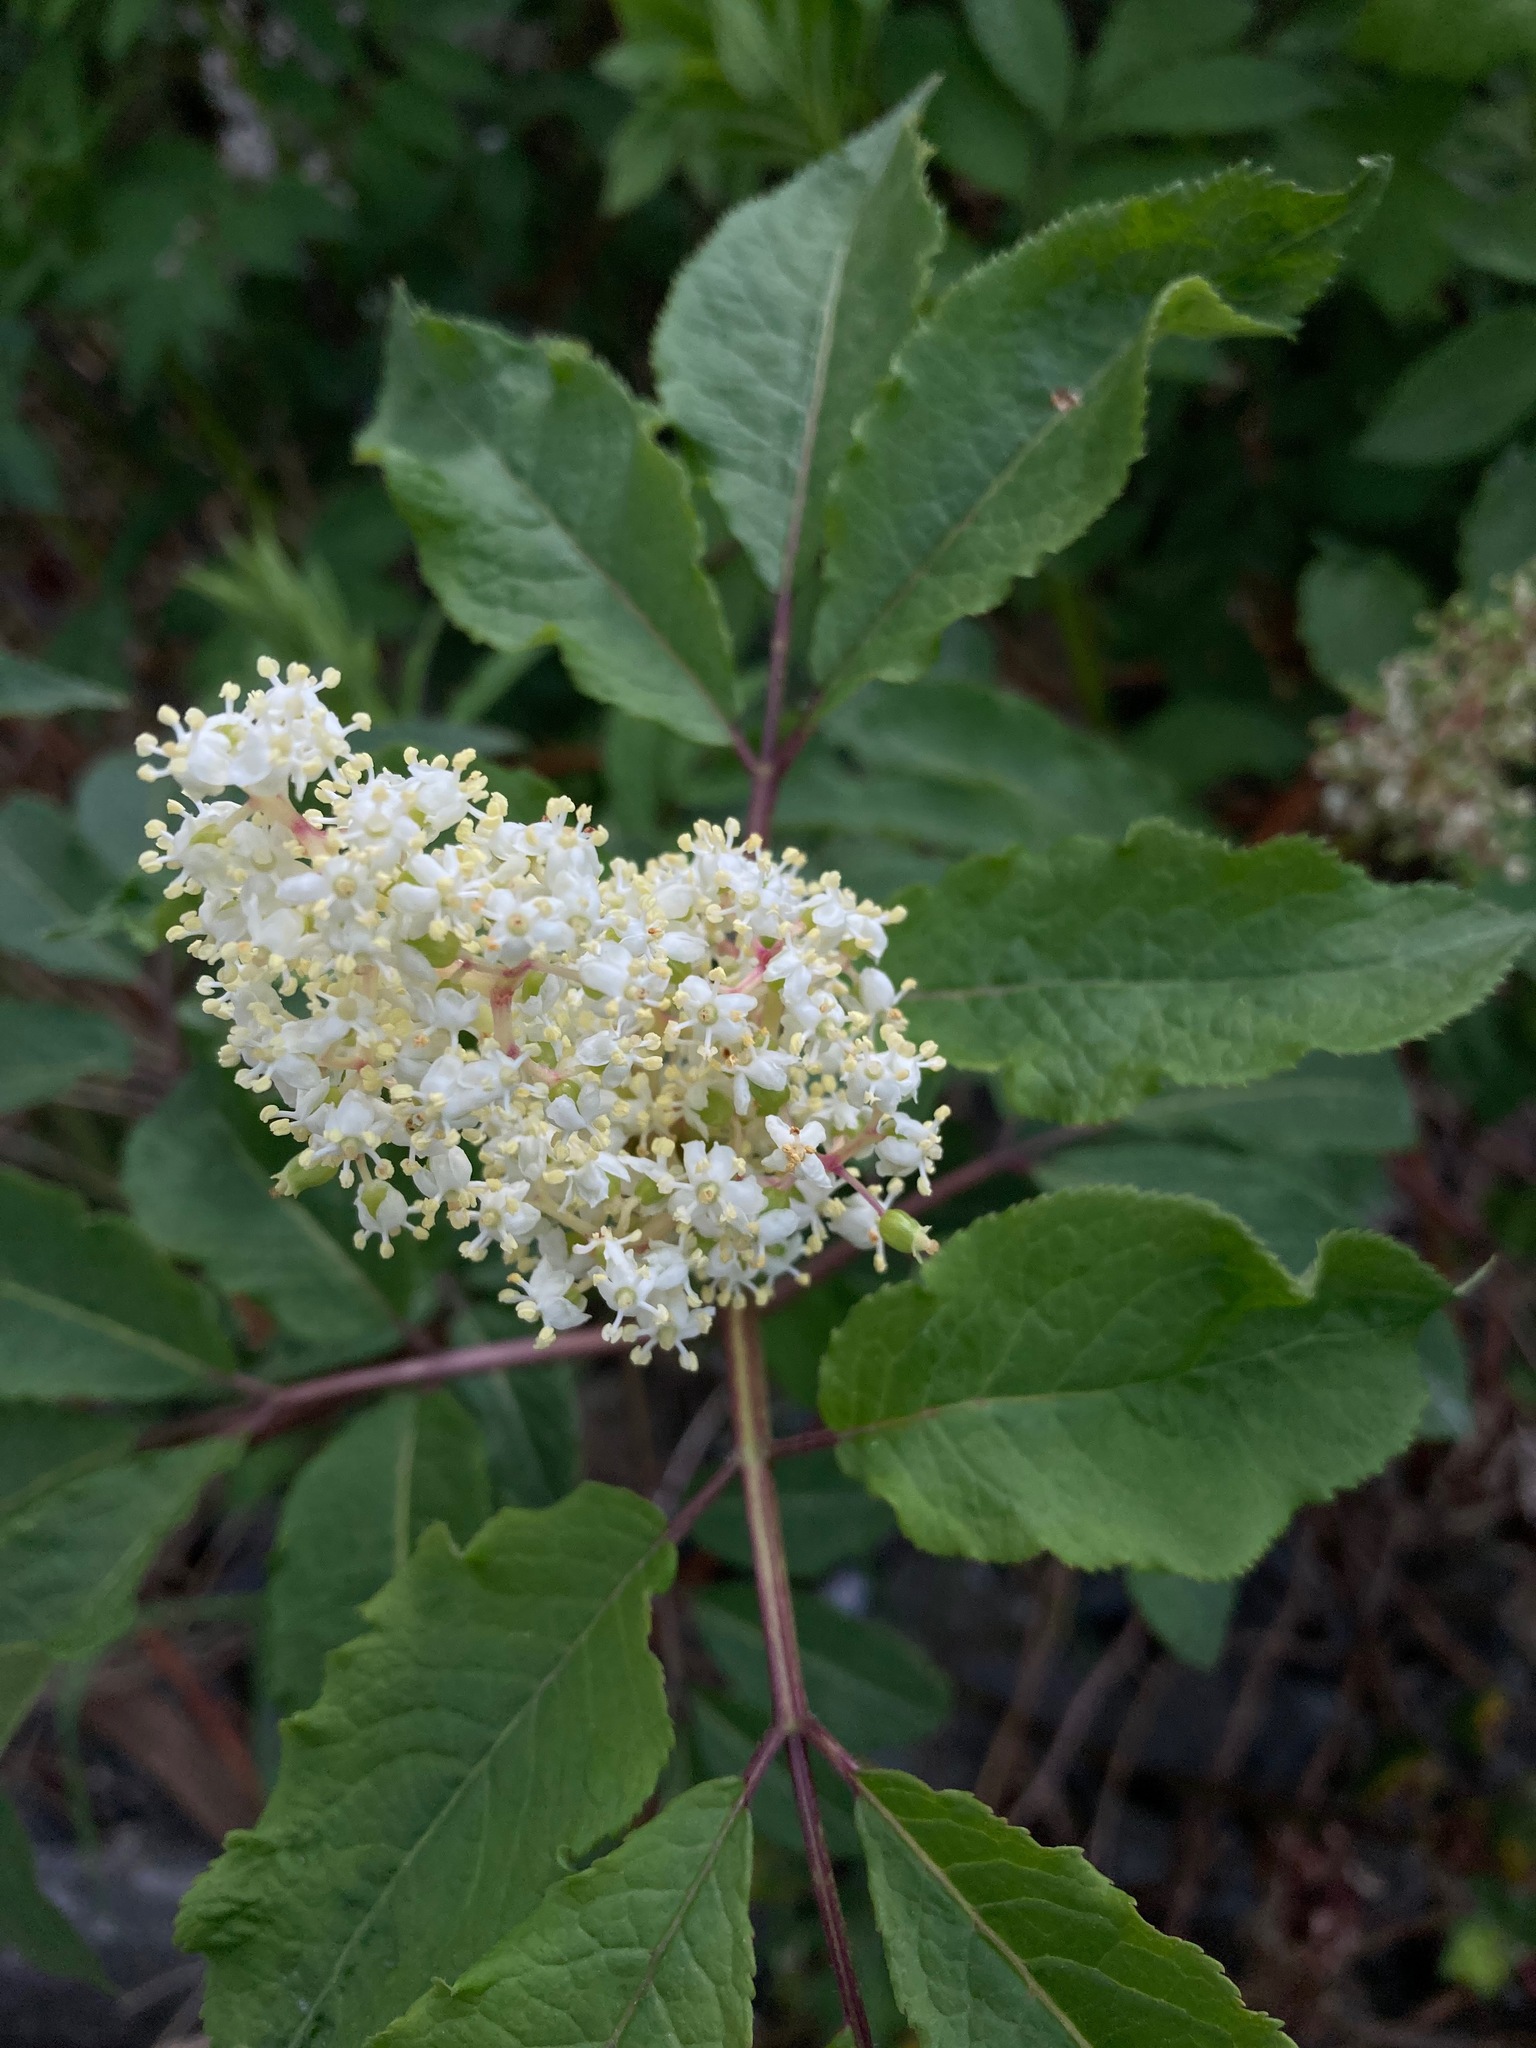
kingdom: Plantae
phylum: Tracheophyta
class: Magnoliopsida
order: Dipsacales
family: Viburnaceae
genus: Sambucus
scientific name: Sambucus racemosa
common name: Red-berried elder
